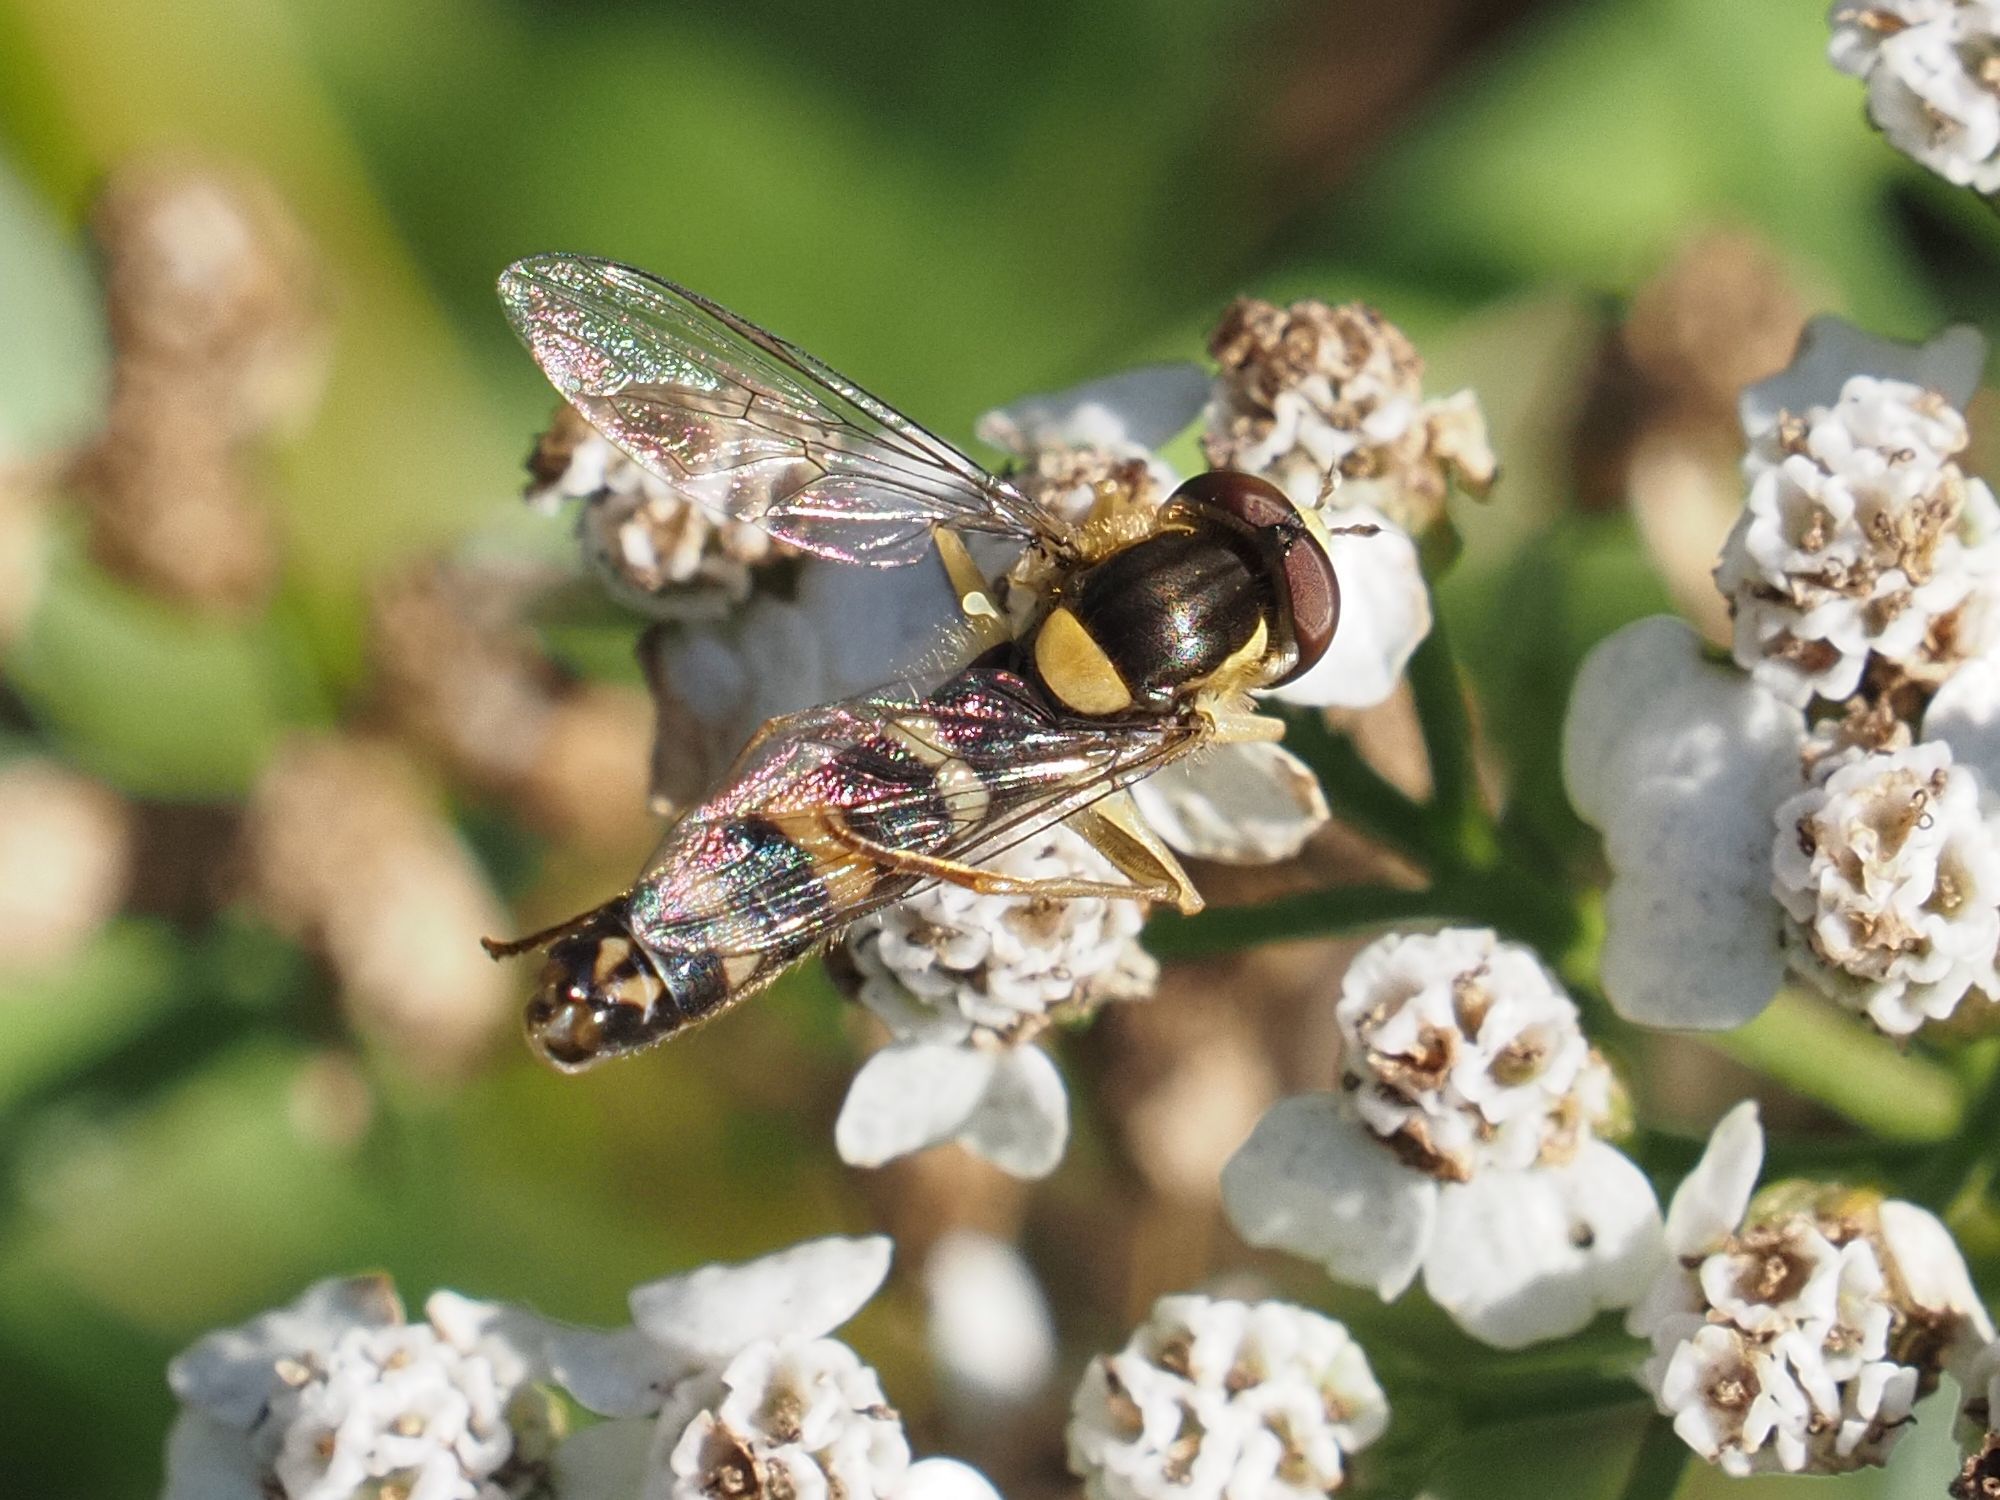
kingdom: Animalia
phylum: Arthropoda
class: Insecta
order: Diptera
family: Syrphidae
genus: Sphaerophoria
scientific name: Sphaerophoria scripta
